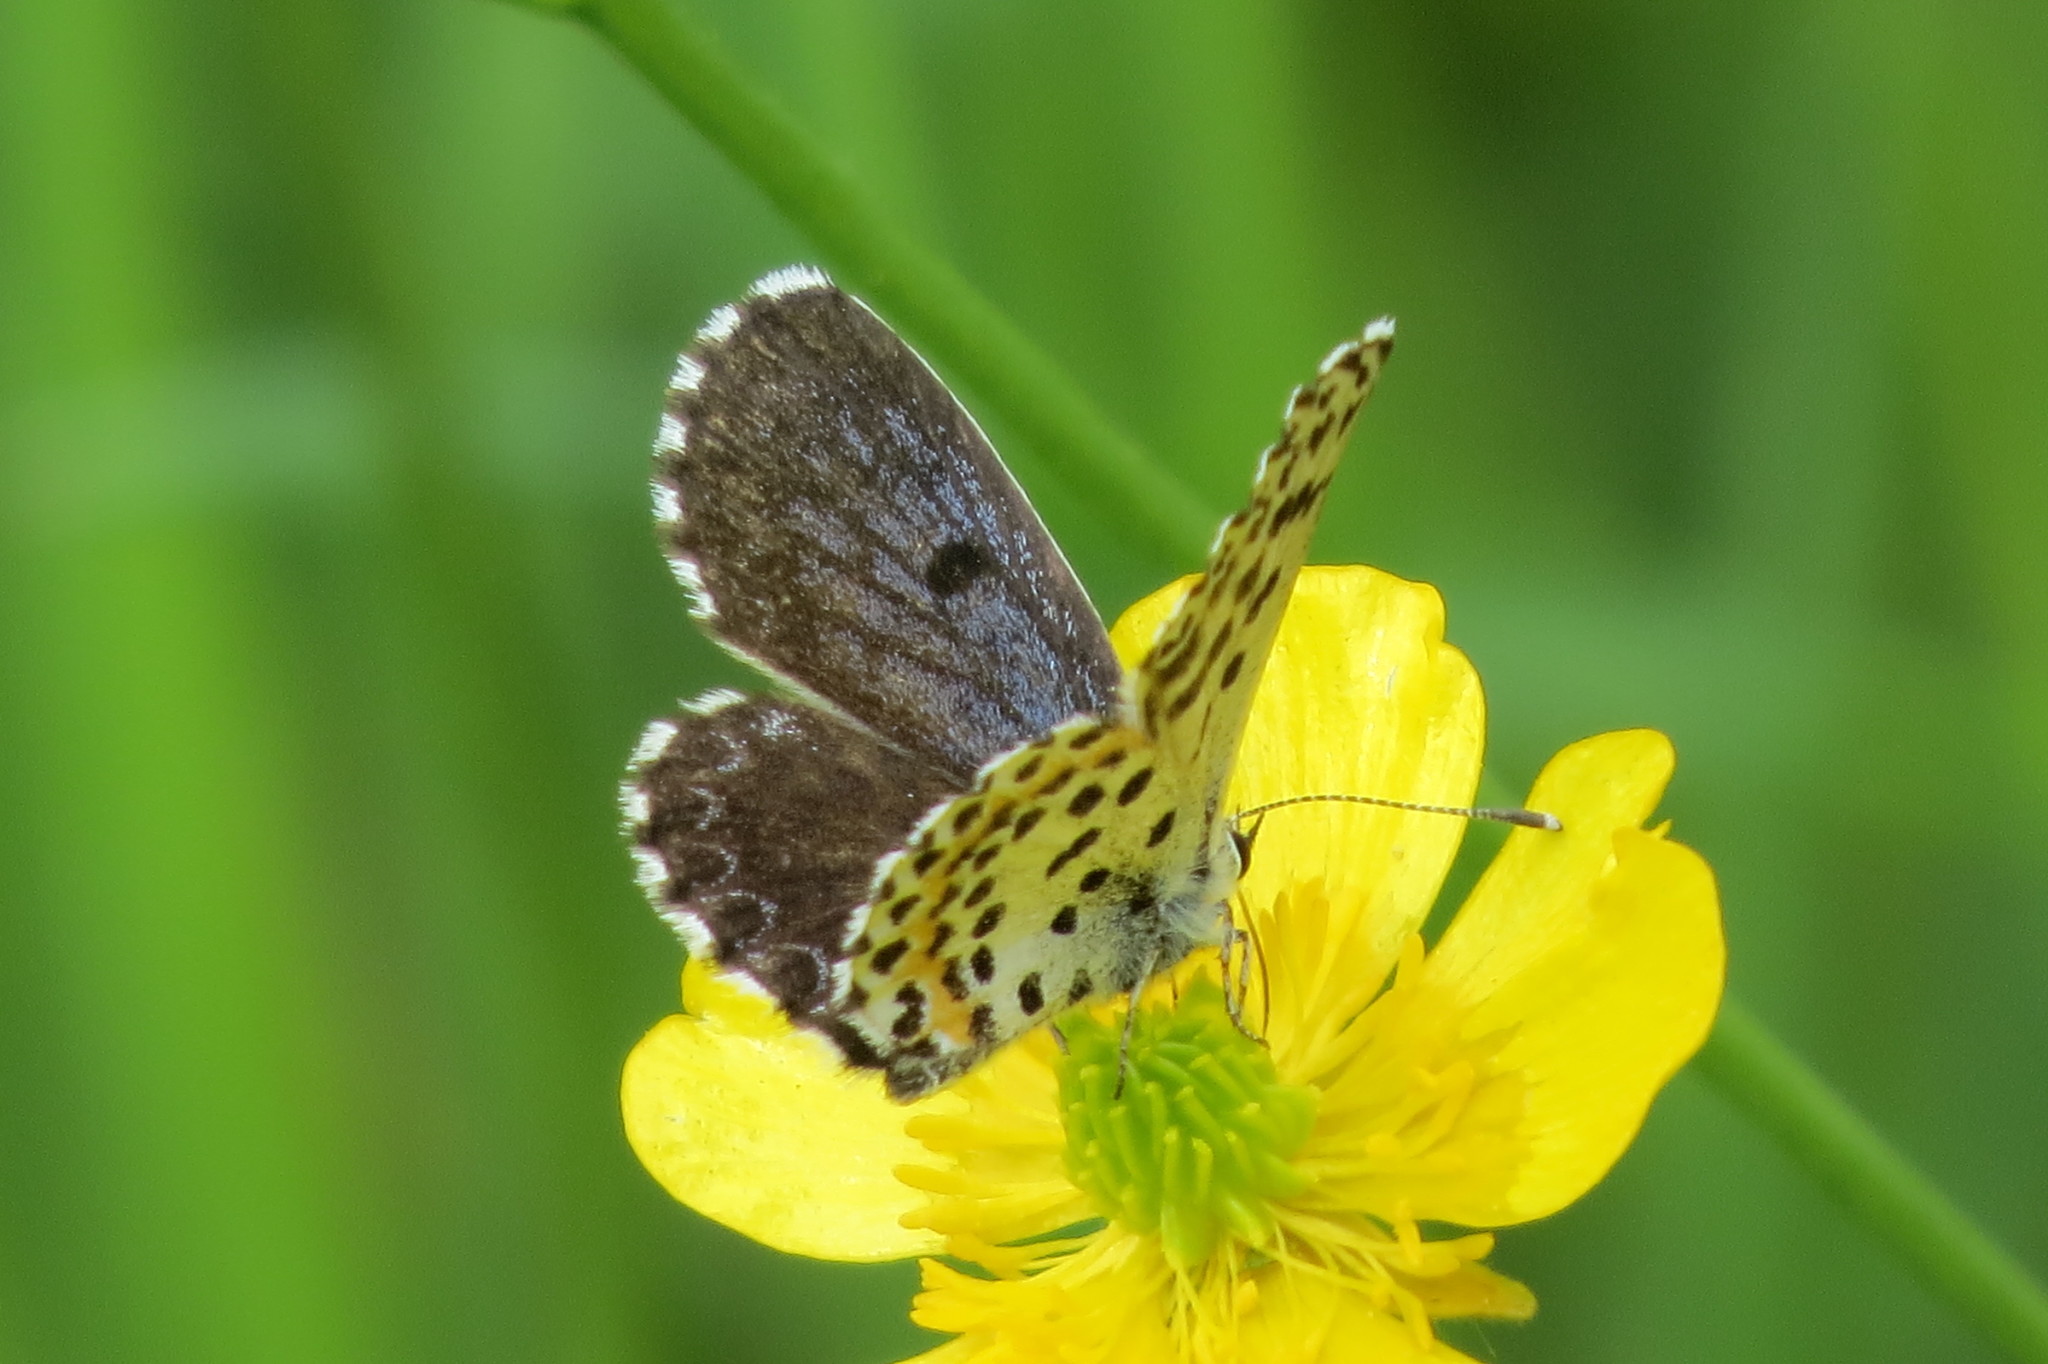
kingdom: Animalia
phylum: Arthropoda
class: Insecta
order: Lepidoptera
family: Lycaenidae
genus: Scolitantides
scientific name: Scolitantides orion
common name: Chequered blue
